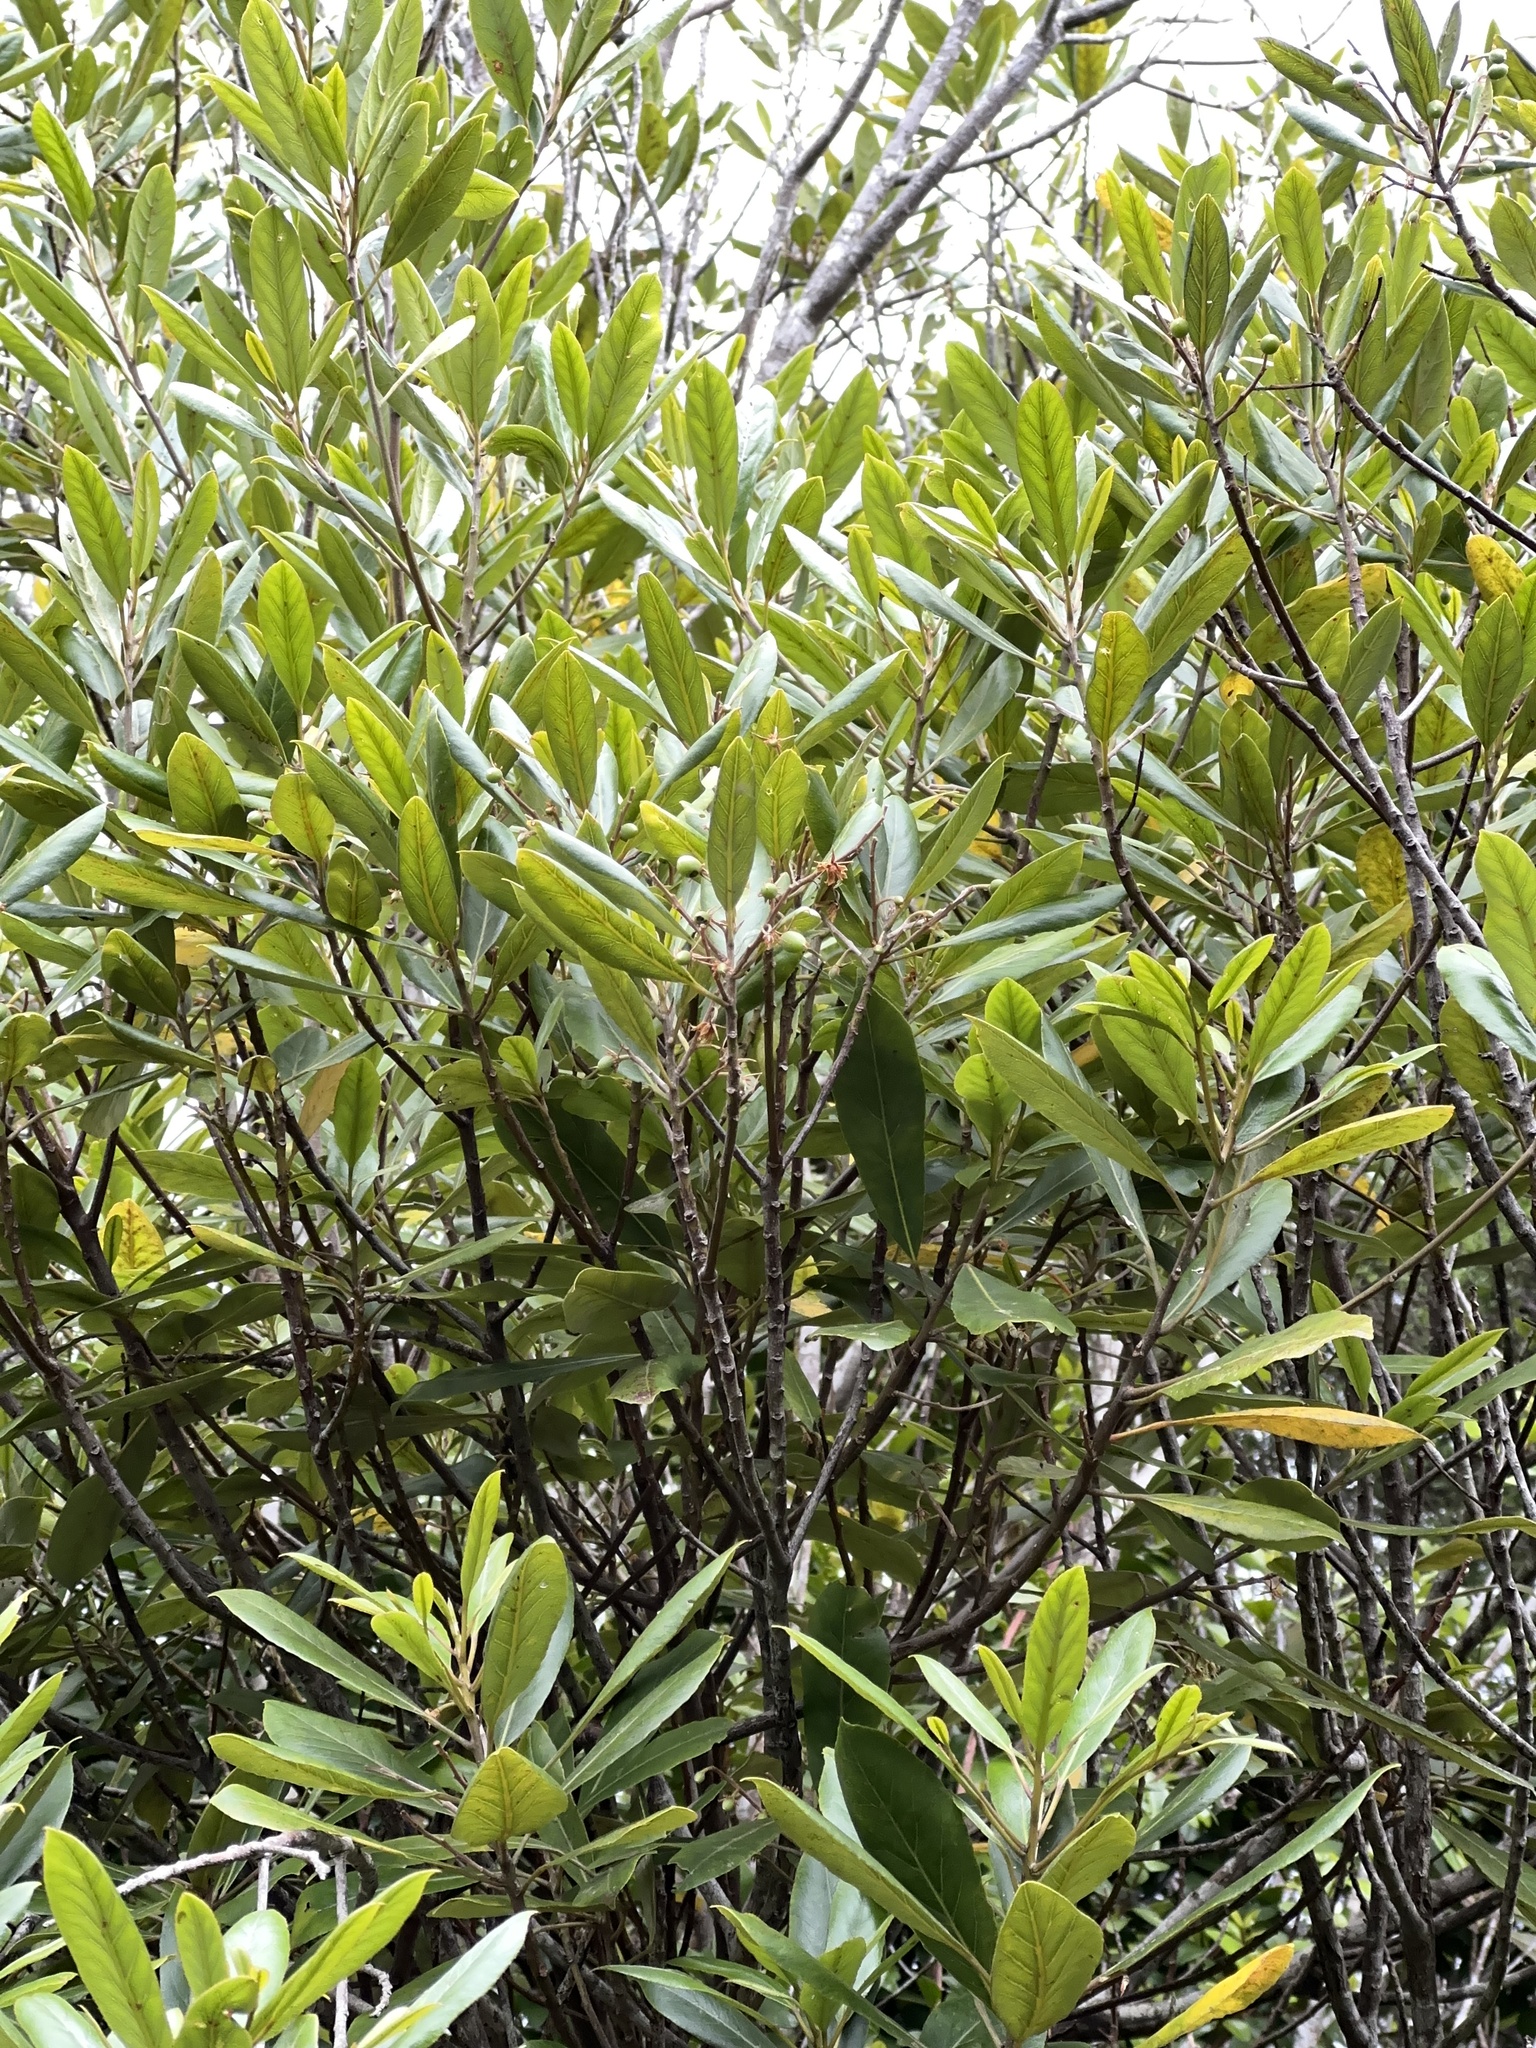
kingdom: Plantae
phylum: Tracheophyta
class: Magnoliopsida
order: Oxalidales
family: Elaeocarpaceae
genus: Elaeocarpus
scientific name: Elaeocarpus dentatus
